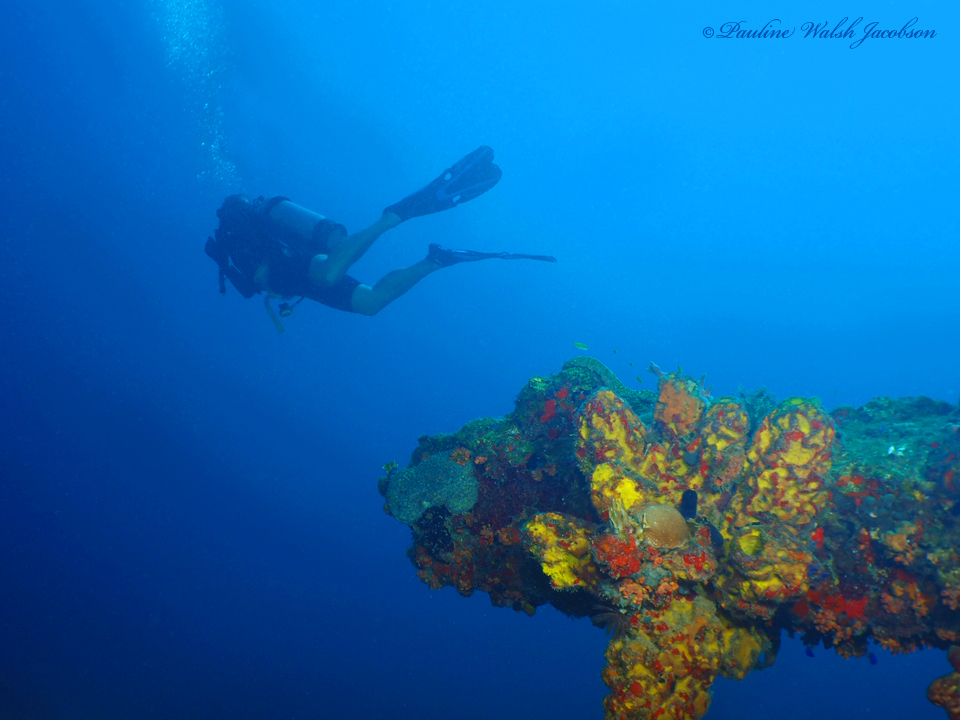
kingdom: Animalia
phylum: Porifera
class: Demospongiae
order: Verongiida
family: Aplysinidae
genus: Aplysina
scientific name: Aplysina lacunosa
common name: Convoluted barrel sponge
